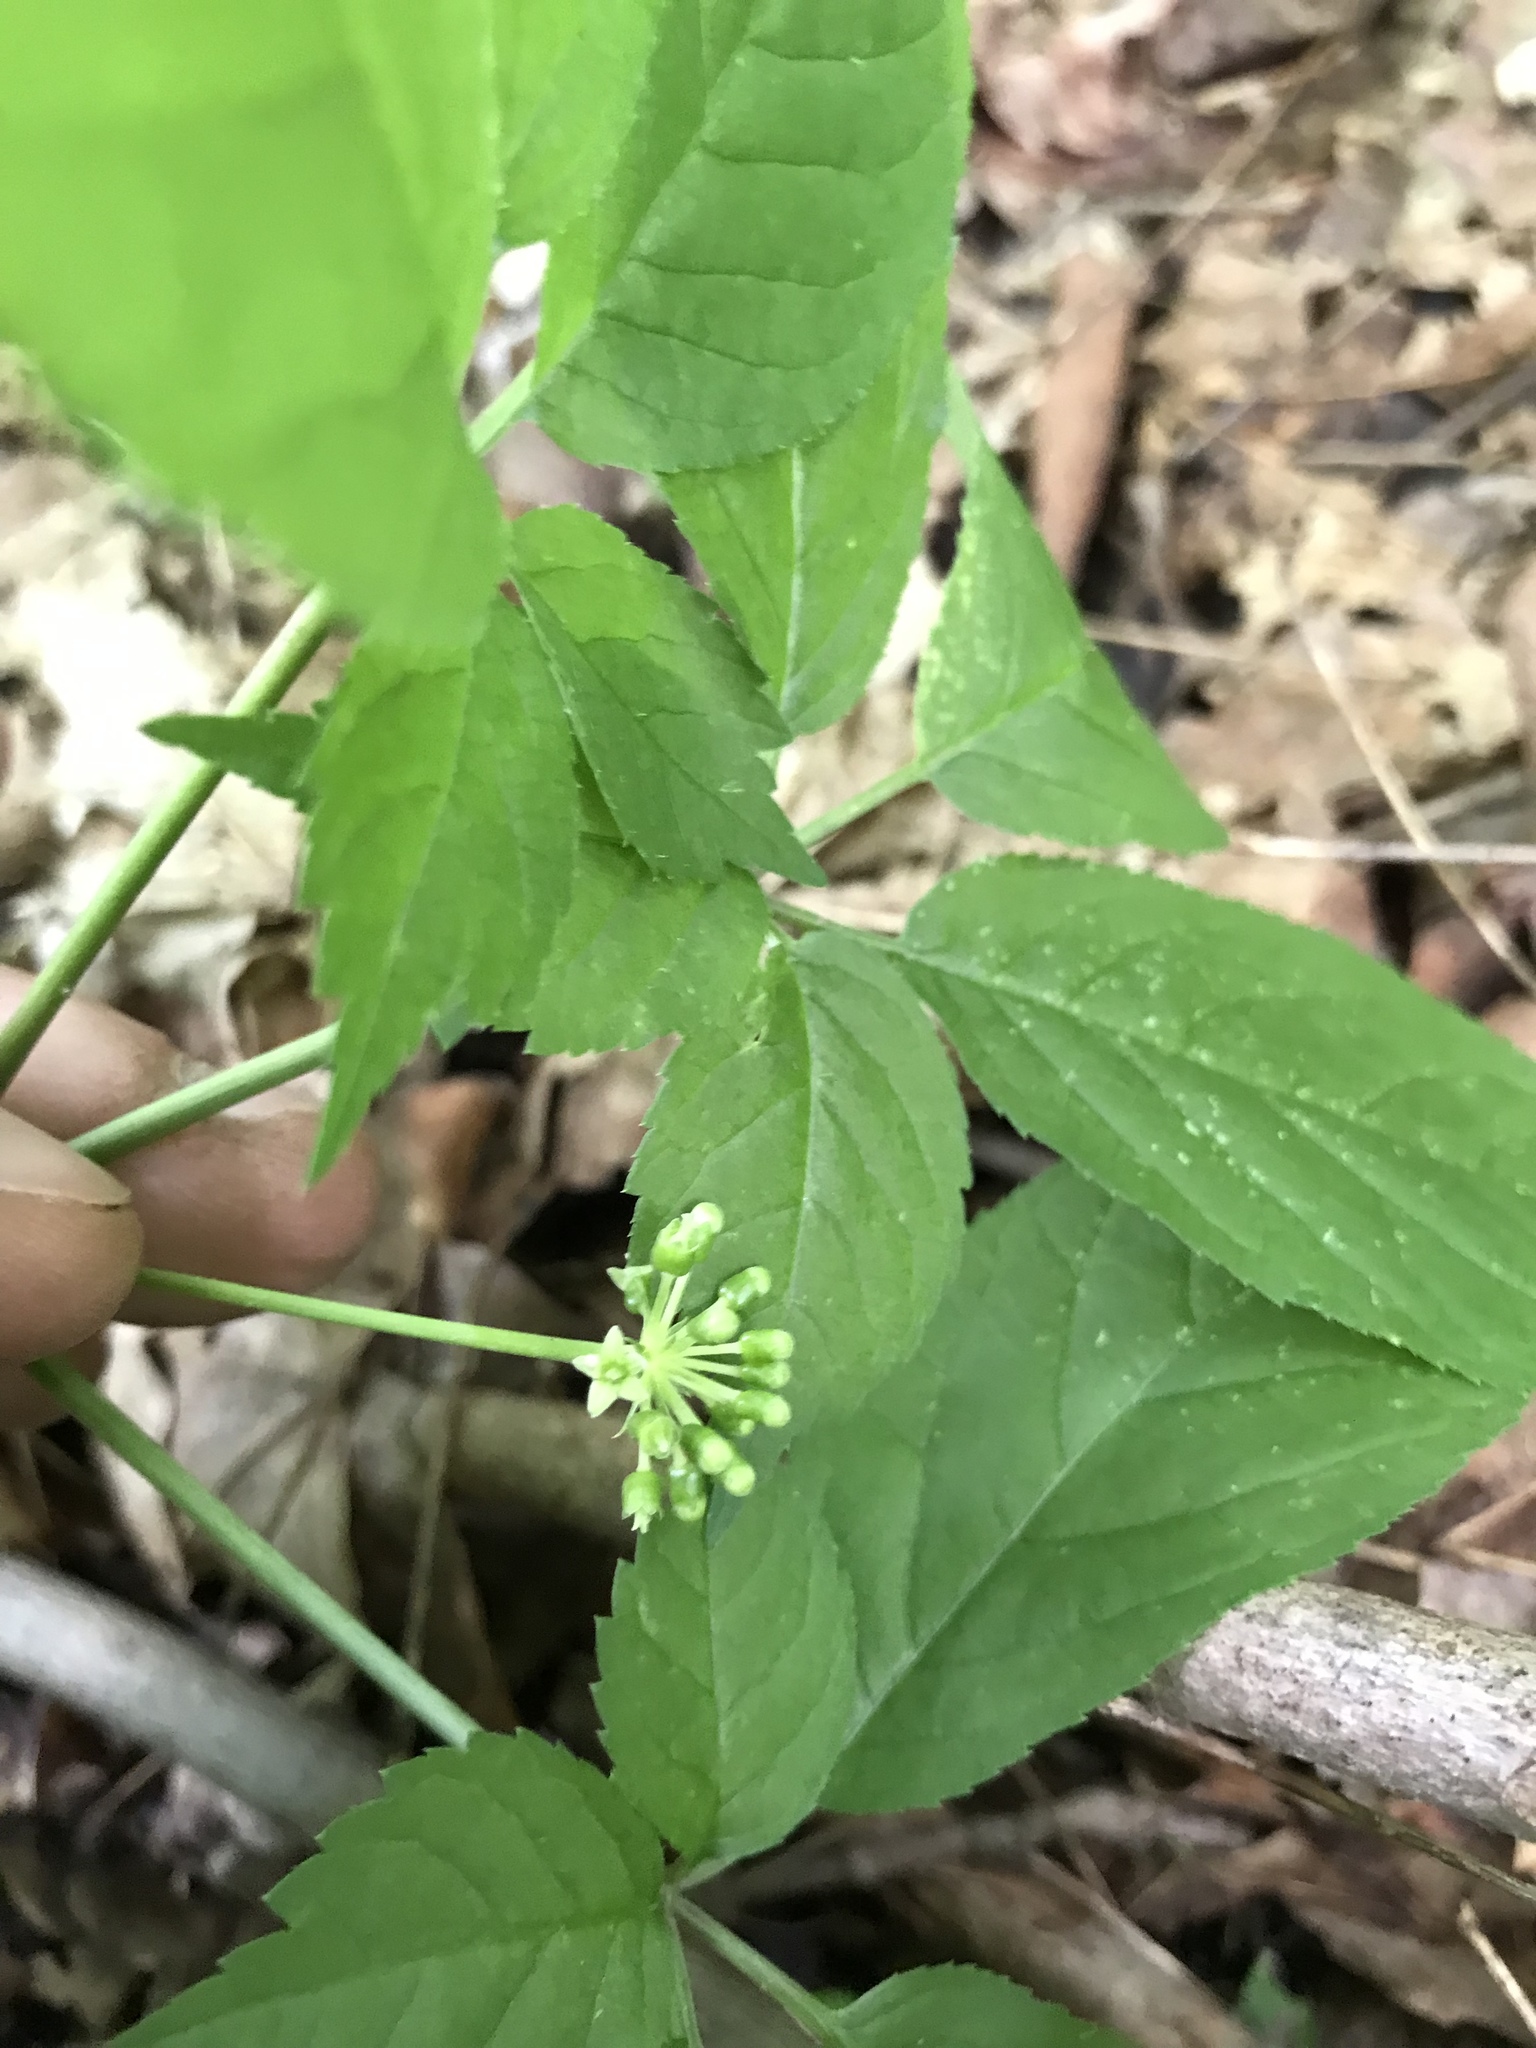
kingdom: Plantae
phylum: Tracheophyta
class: Magnoliopsida
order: Apiales
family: Araliaceae
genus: Panax
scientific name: Panax quinquefolius
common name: American ginseng
